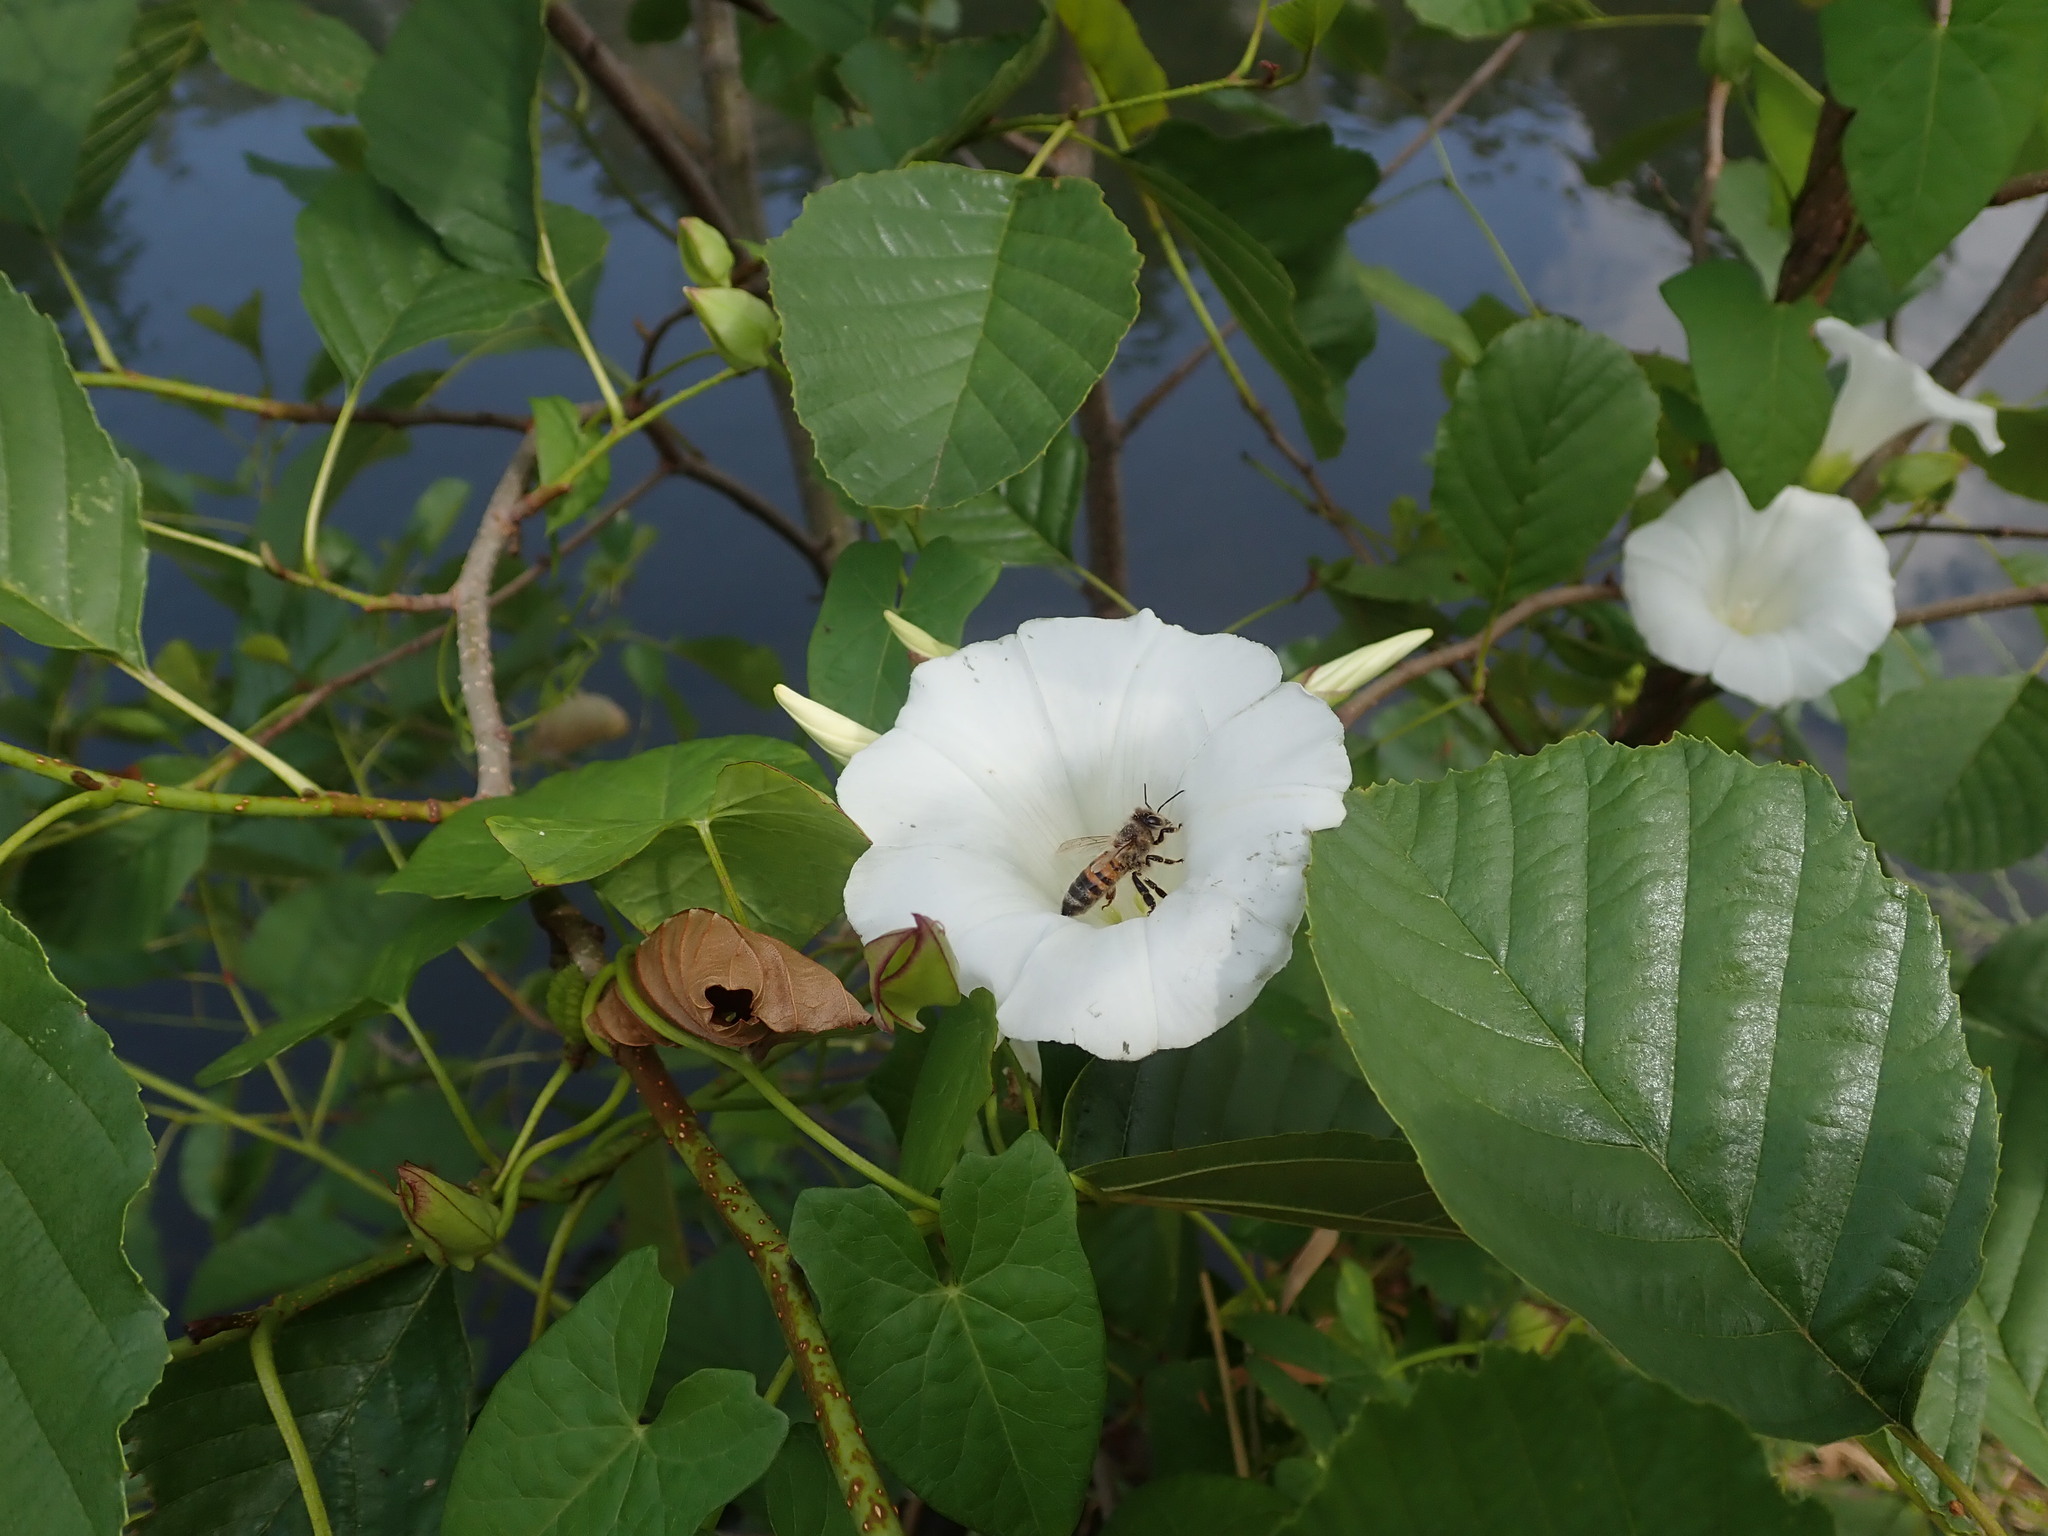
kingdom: Animalia
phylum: Arthropoda
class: Insecta
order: Hymenoptera
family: Apidae
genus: Apis
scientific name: Apis mellifera
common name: Honey bee
